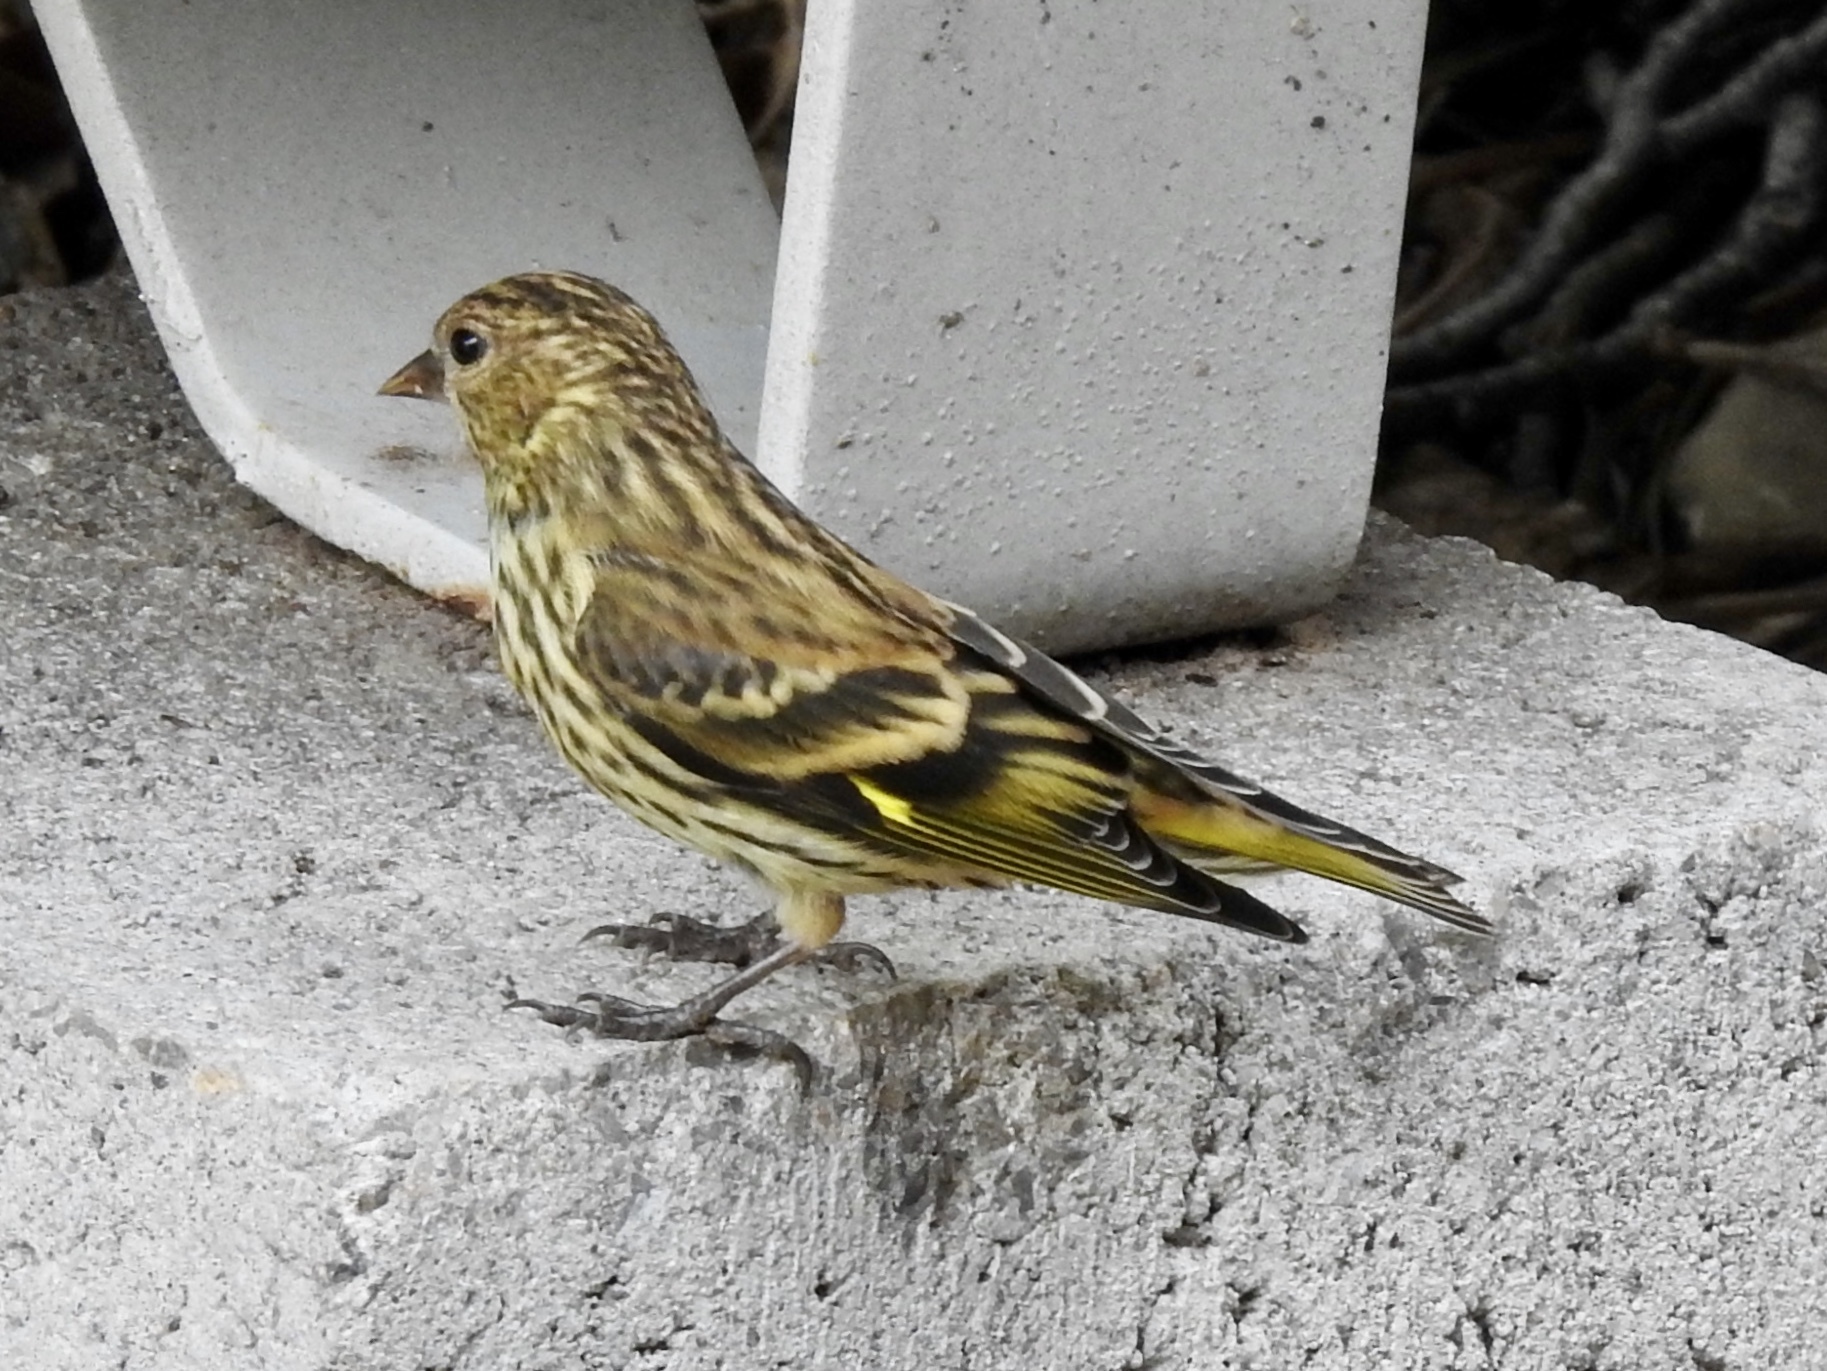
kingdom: Animalia
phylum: Chordata
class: Aves
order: Passeriformes
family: Fringillidae
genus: Spinus
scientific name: Spinus pinus
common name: Pine siskin
